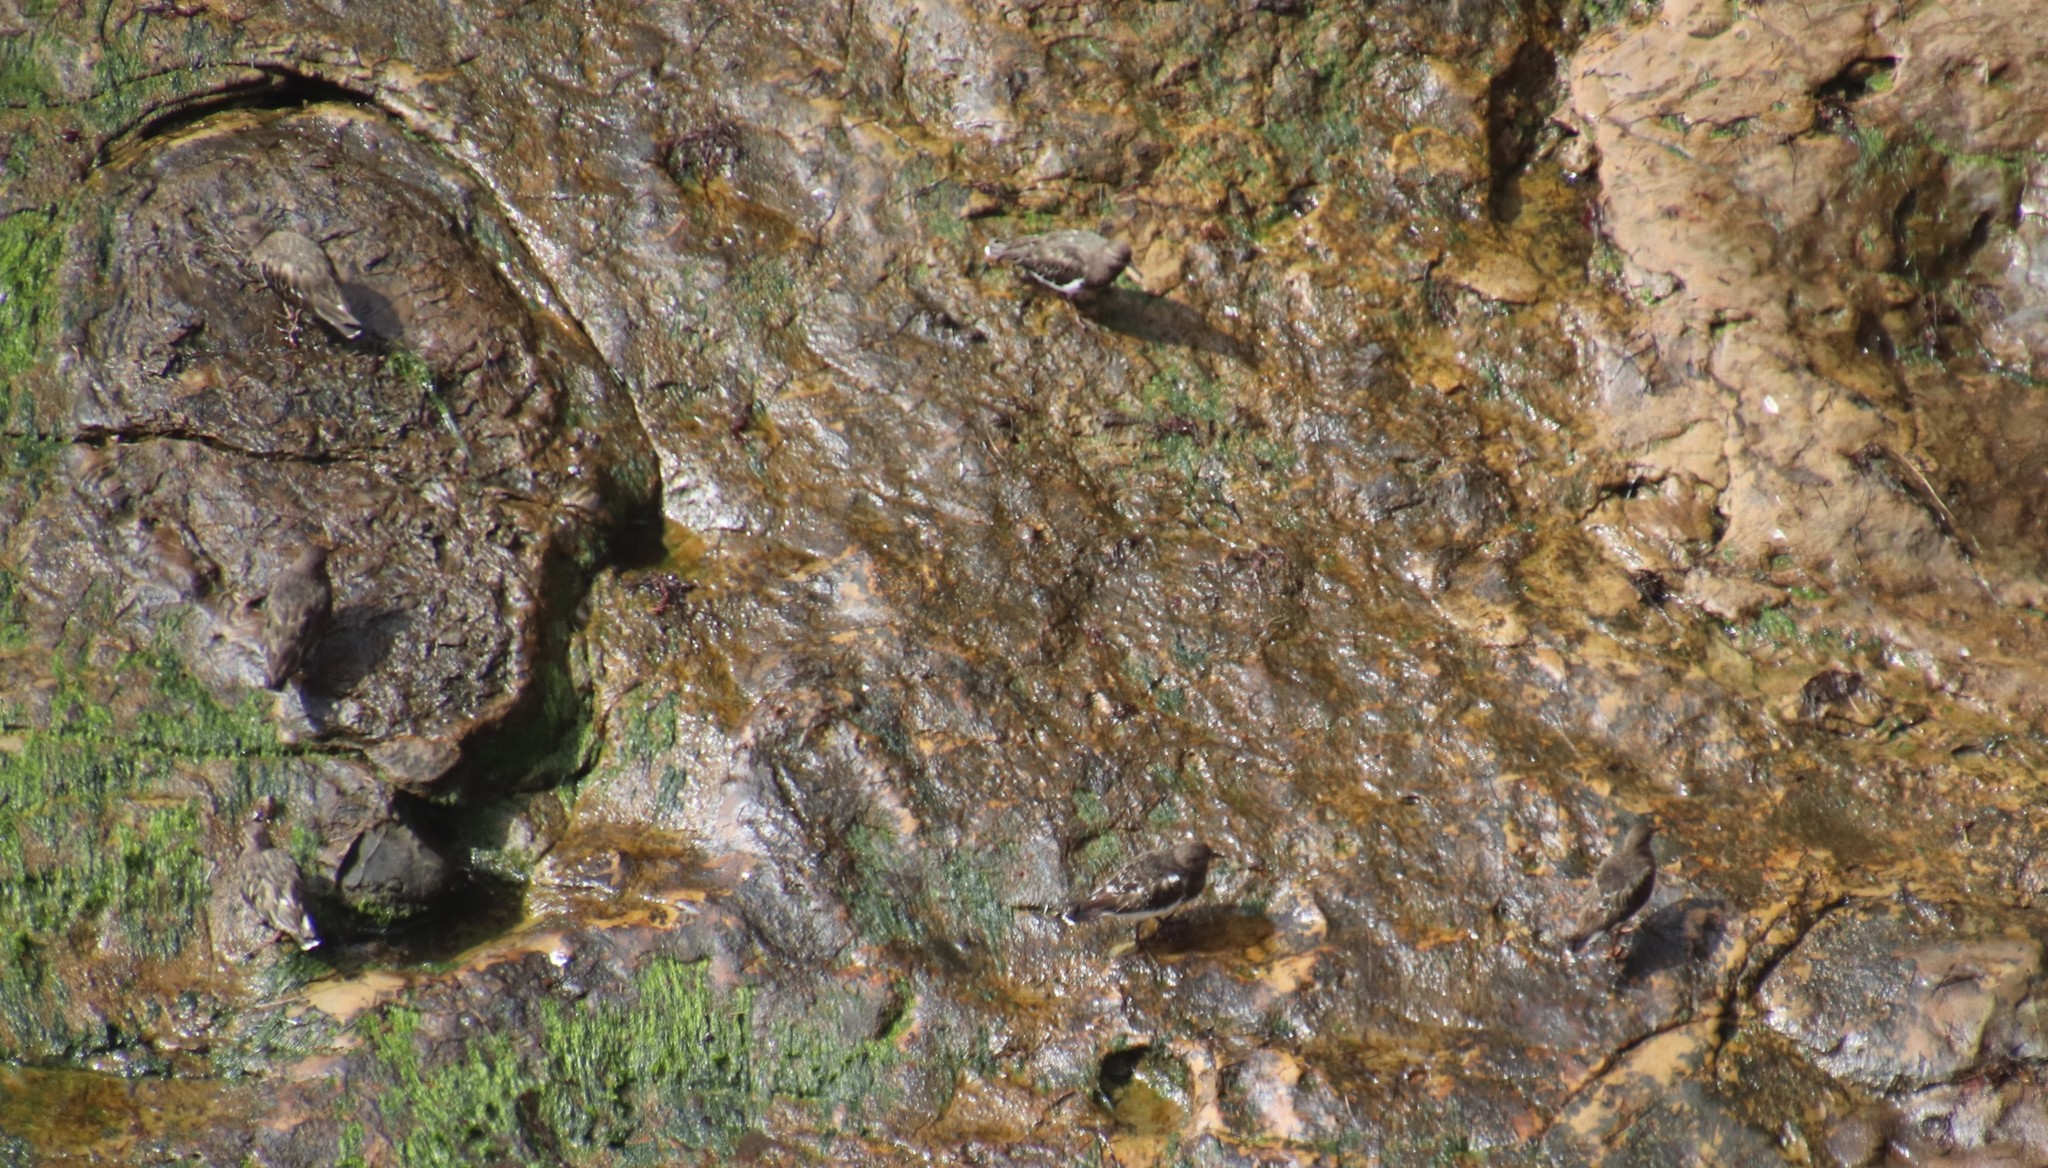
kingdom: Animalia
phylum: Chordata
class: Aves
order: Charadriiformes
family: Scolopacidae
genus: Arenaria
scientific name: Arenaria melanocephala
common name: Black turnstone
